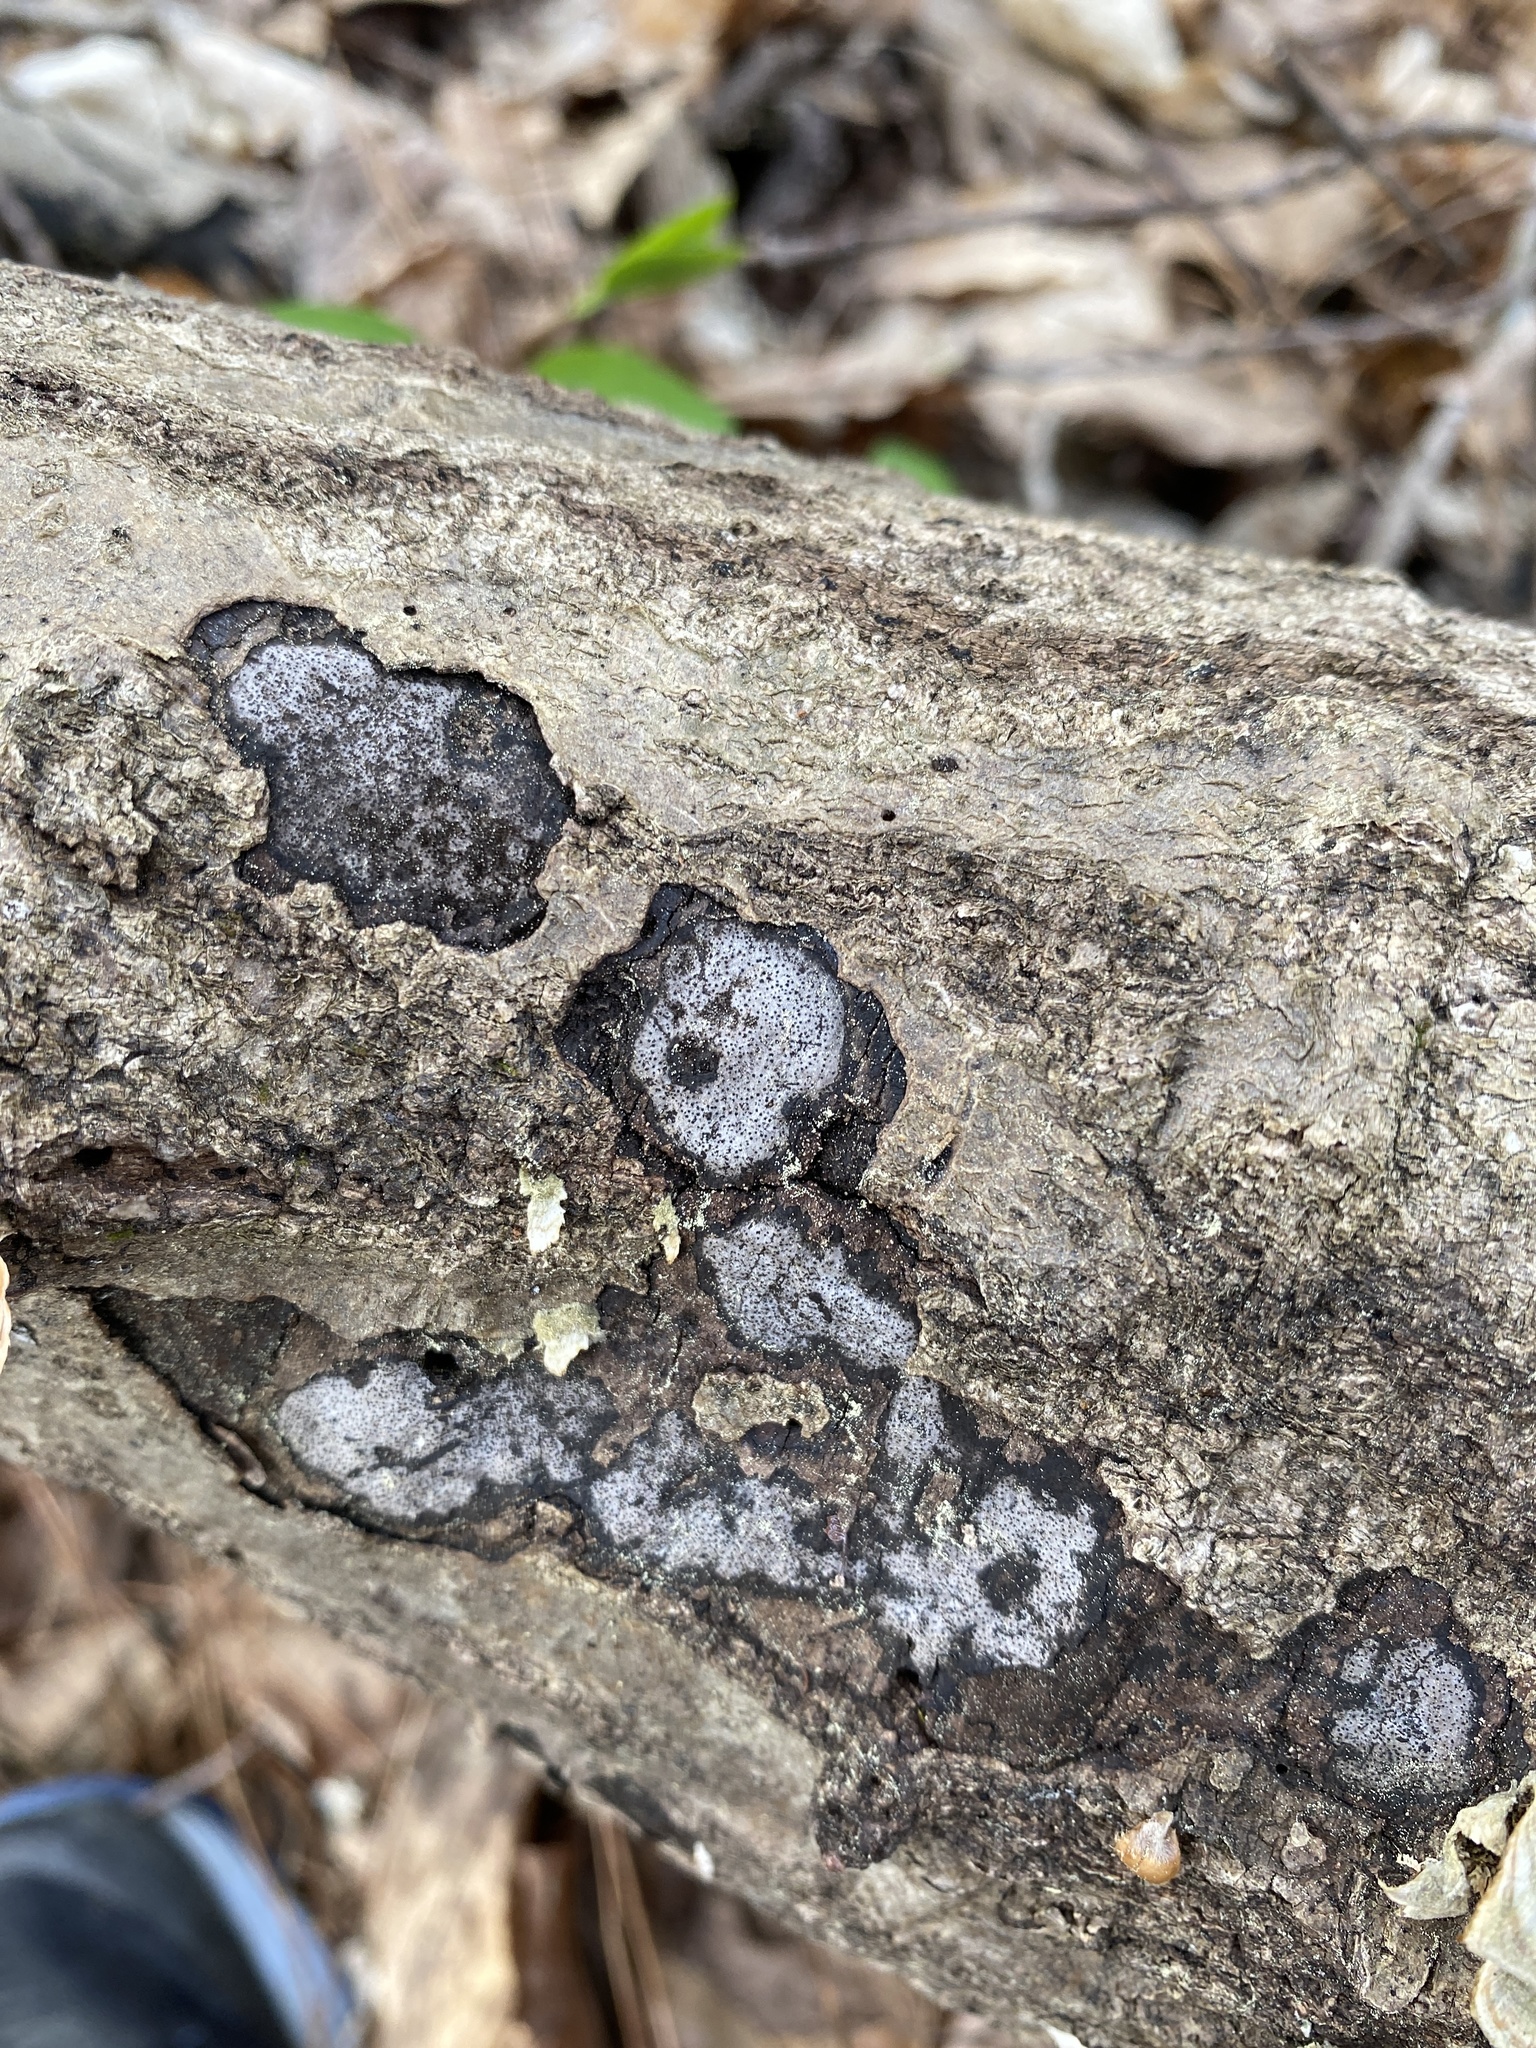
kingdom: Fungi
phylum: Ascomycota
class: Sordariomycetes
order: Xylariales
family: Graphostromataceae
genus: Biscogniauxia
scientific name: Biscogniauxia atropunctata
